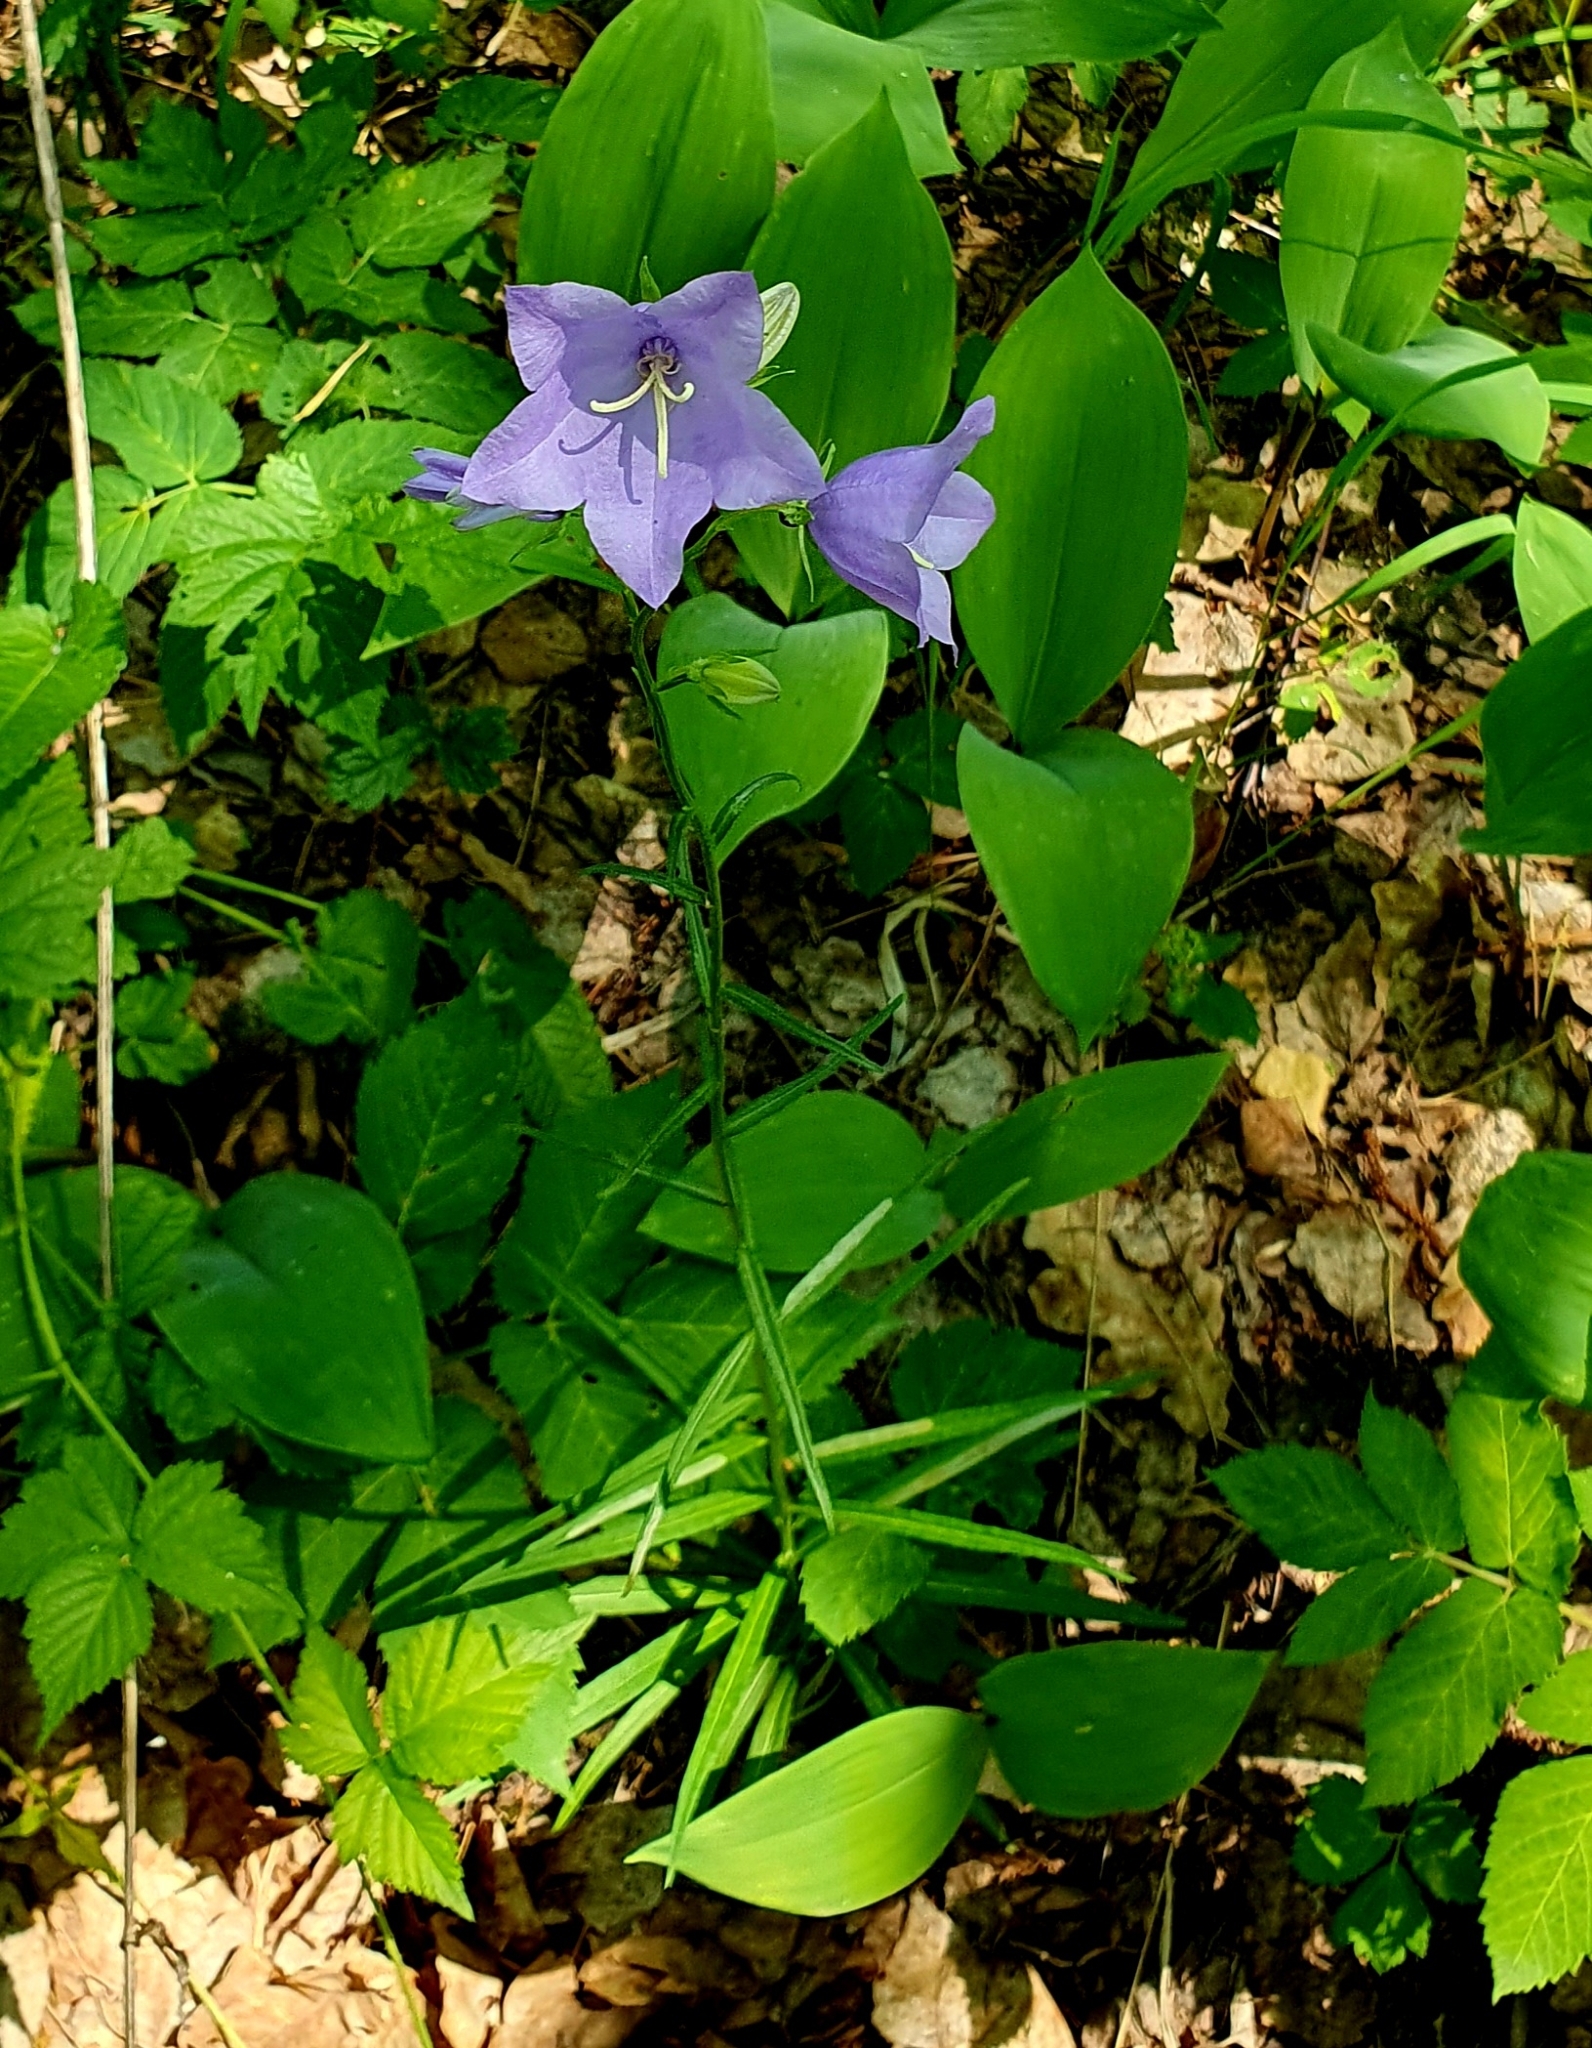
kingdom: Plantae
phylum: Tracheophyta
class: Magnoliopsida
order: Asterales
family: Campanulaceae
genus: Campanula
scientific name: Campanula persicifolia
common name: Peach-leaved bellflower
